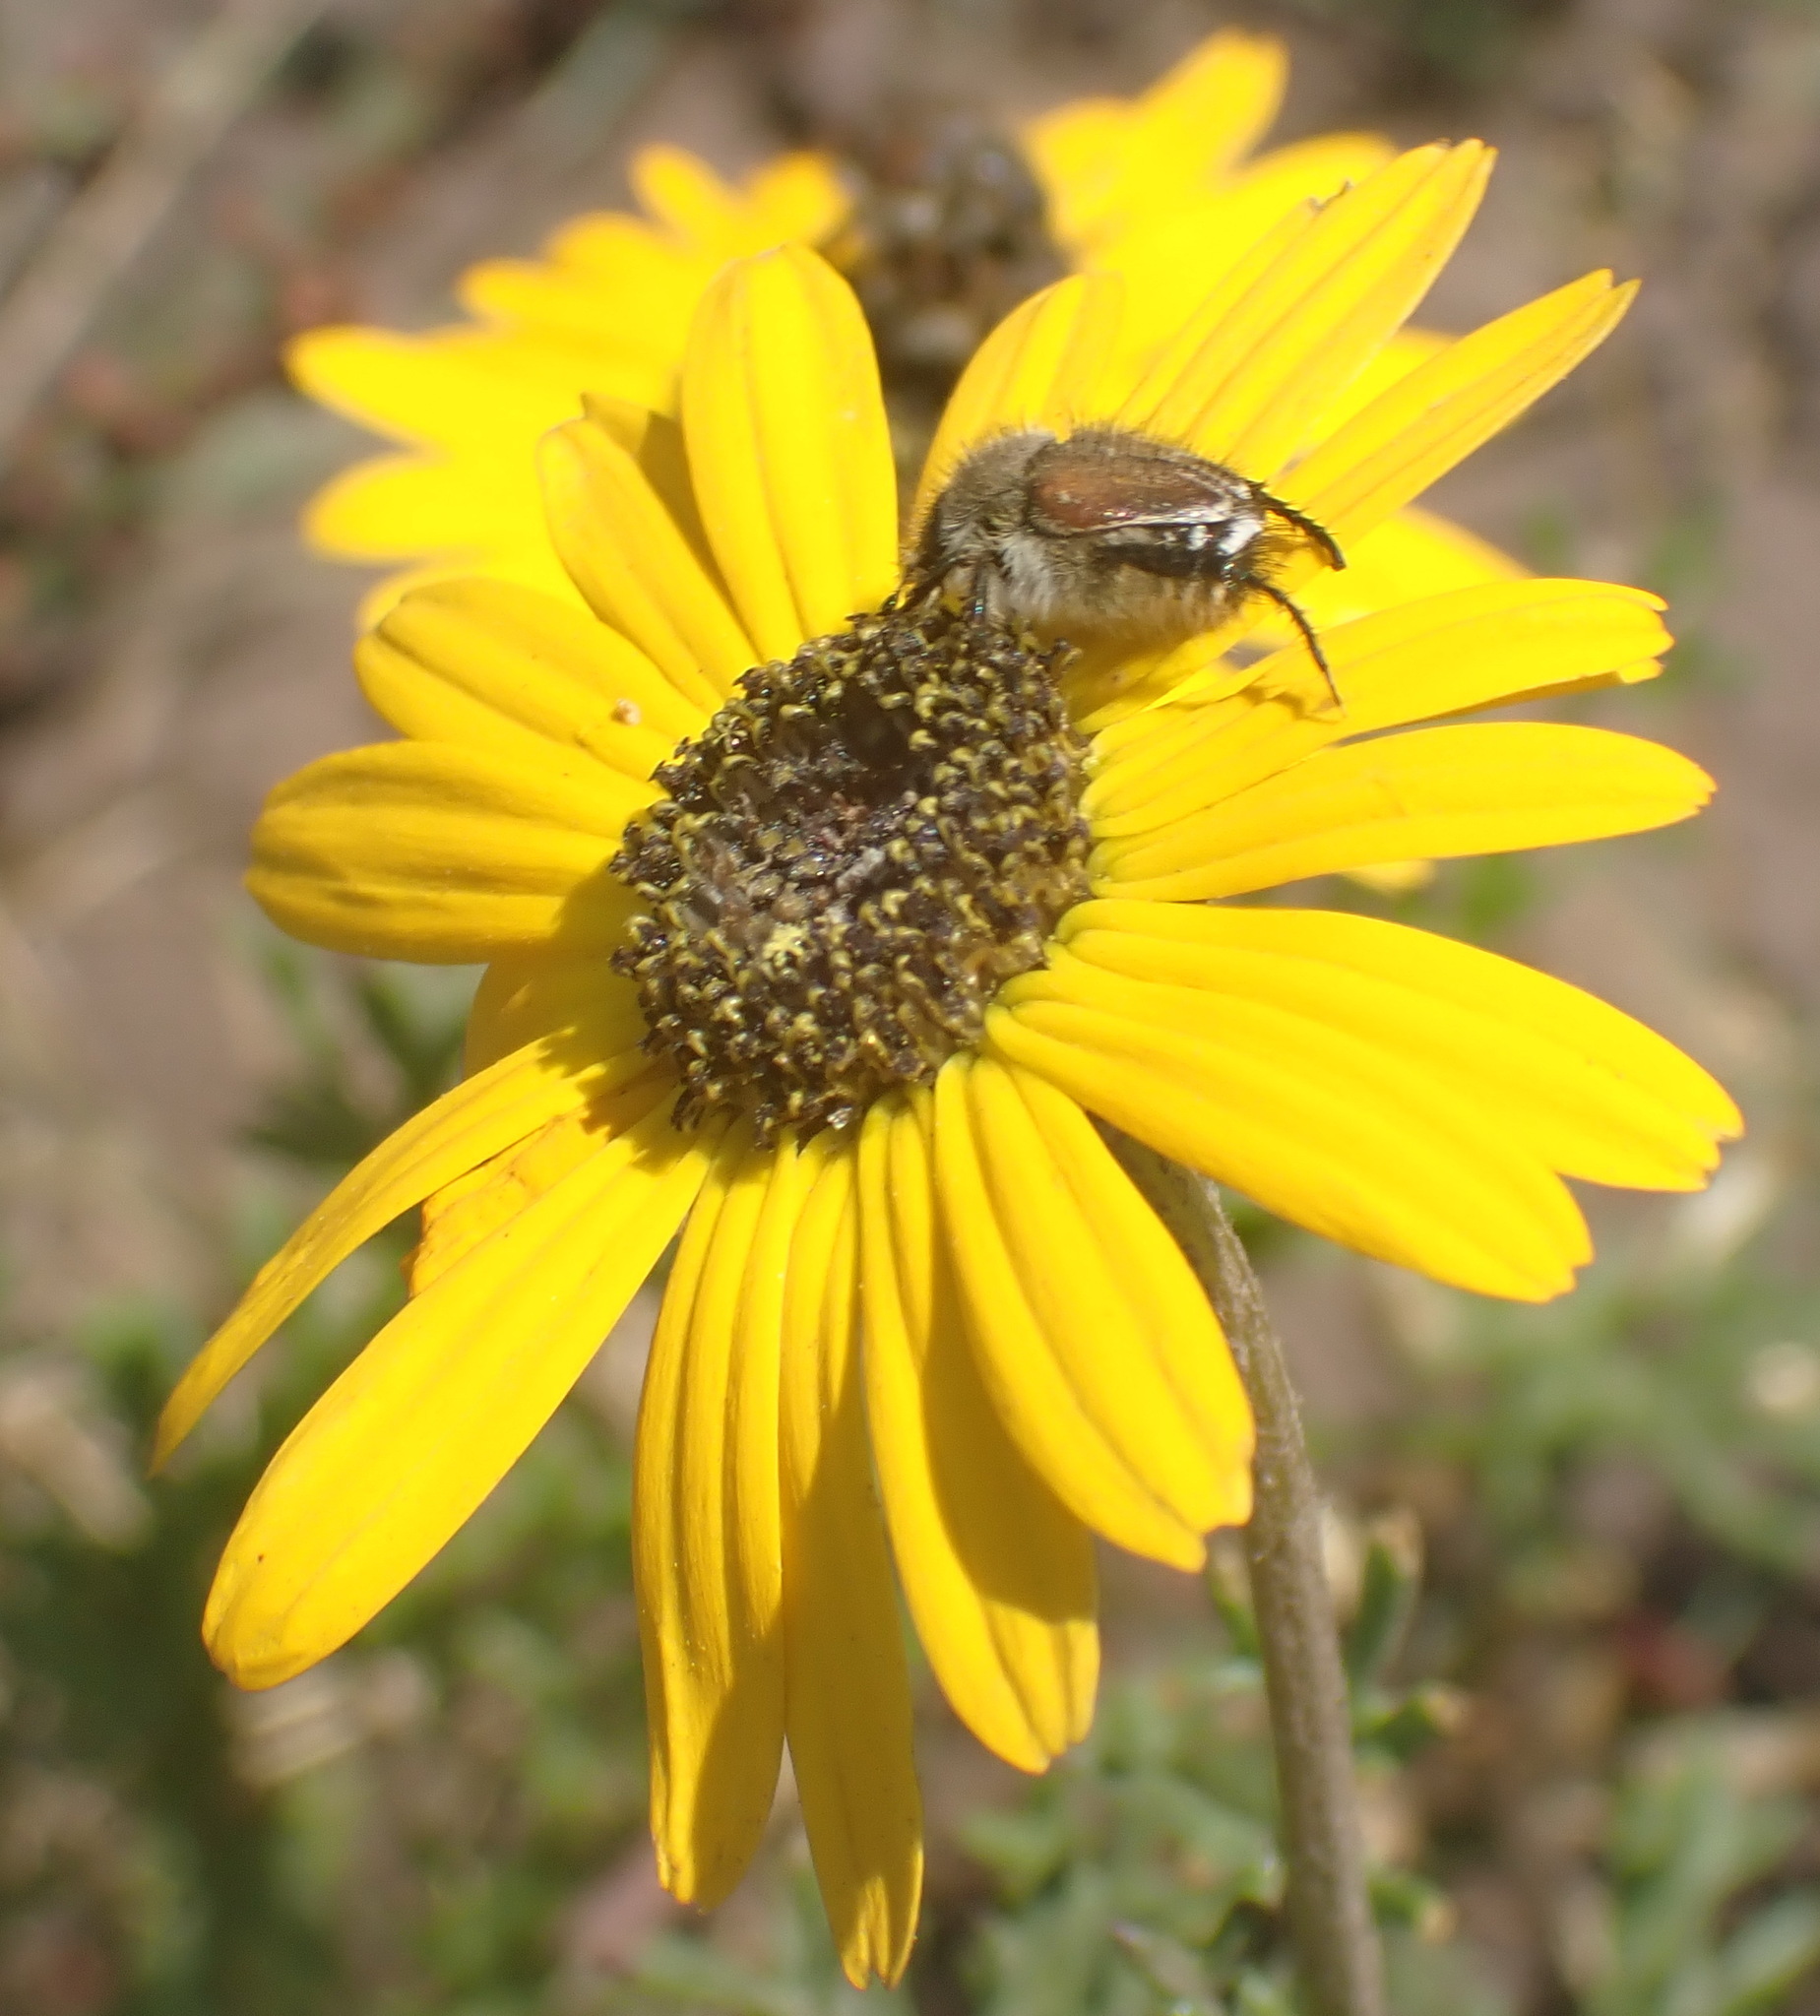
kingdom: Plantae
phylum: Tracheophyta
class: Magnoliopsida
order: Asterales
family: Asteraceae
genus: Ursinia
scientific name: Ursinia chrysanthemoides
